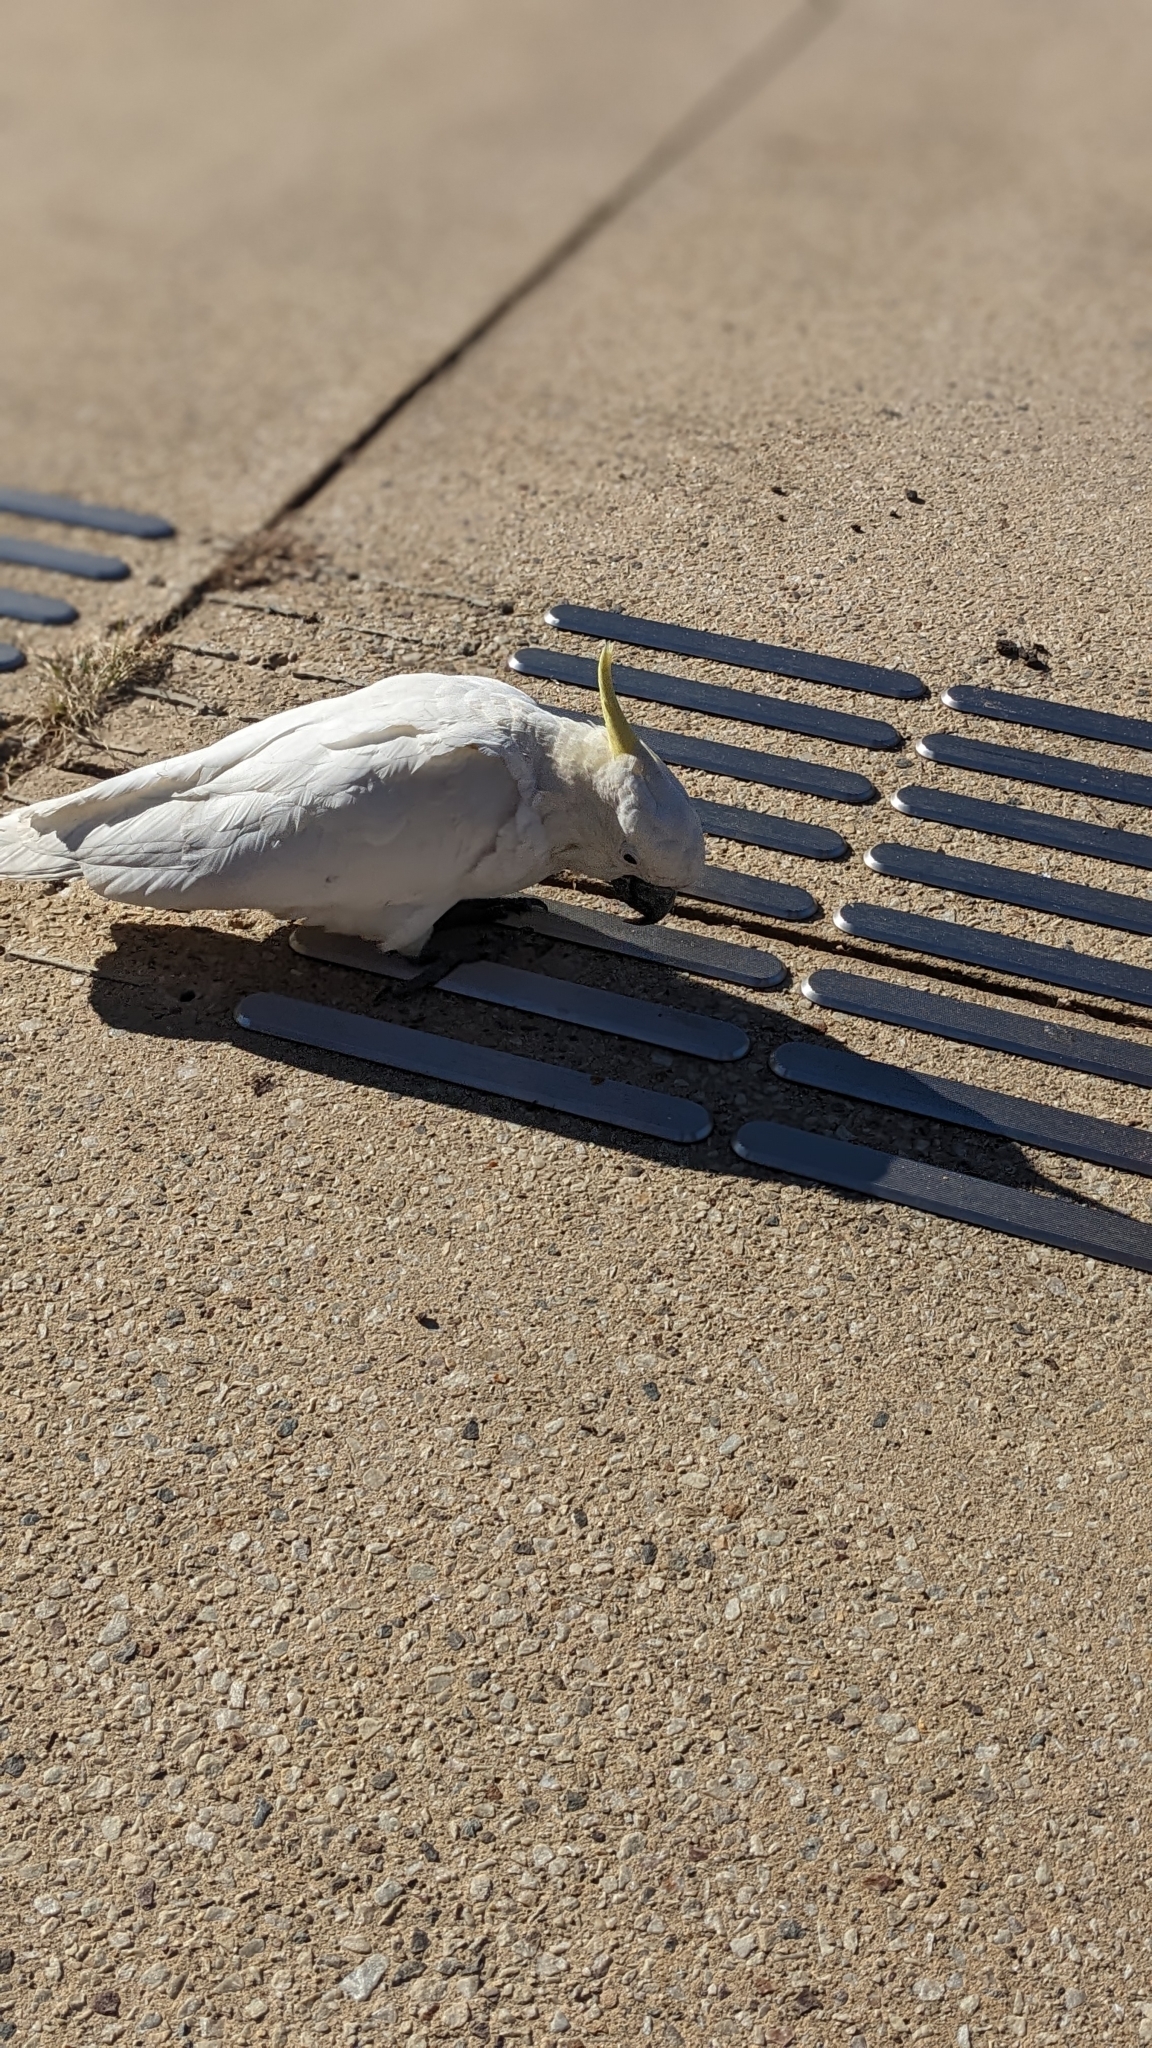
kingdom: Animalia
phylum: Chordata
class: Aves
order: Psittaciformes
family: Psittacidae
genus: Cacatua
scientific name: Cacatua galerita
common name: Sulphur-crested cockatoo
